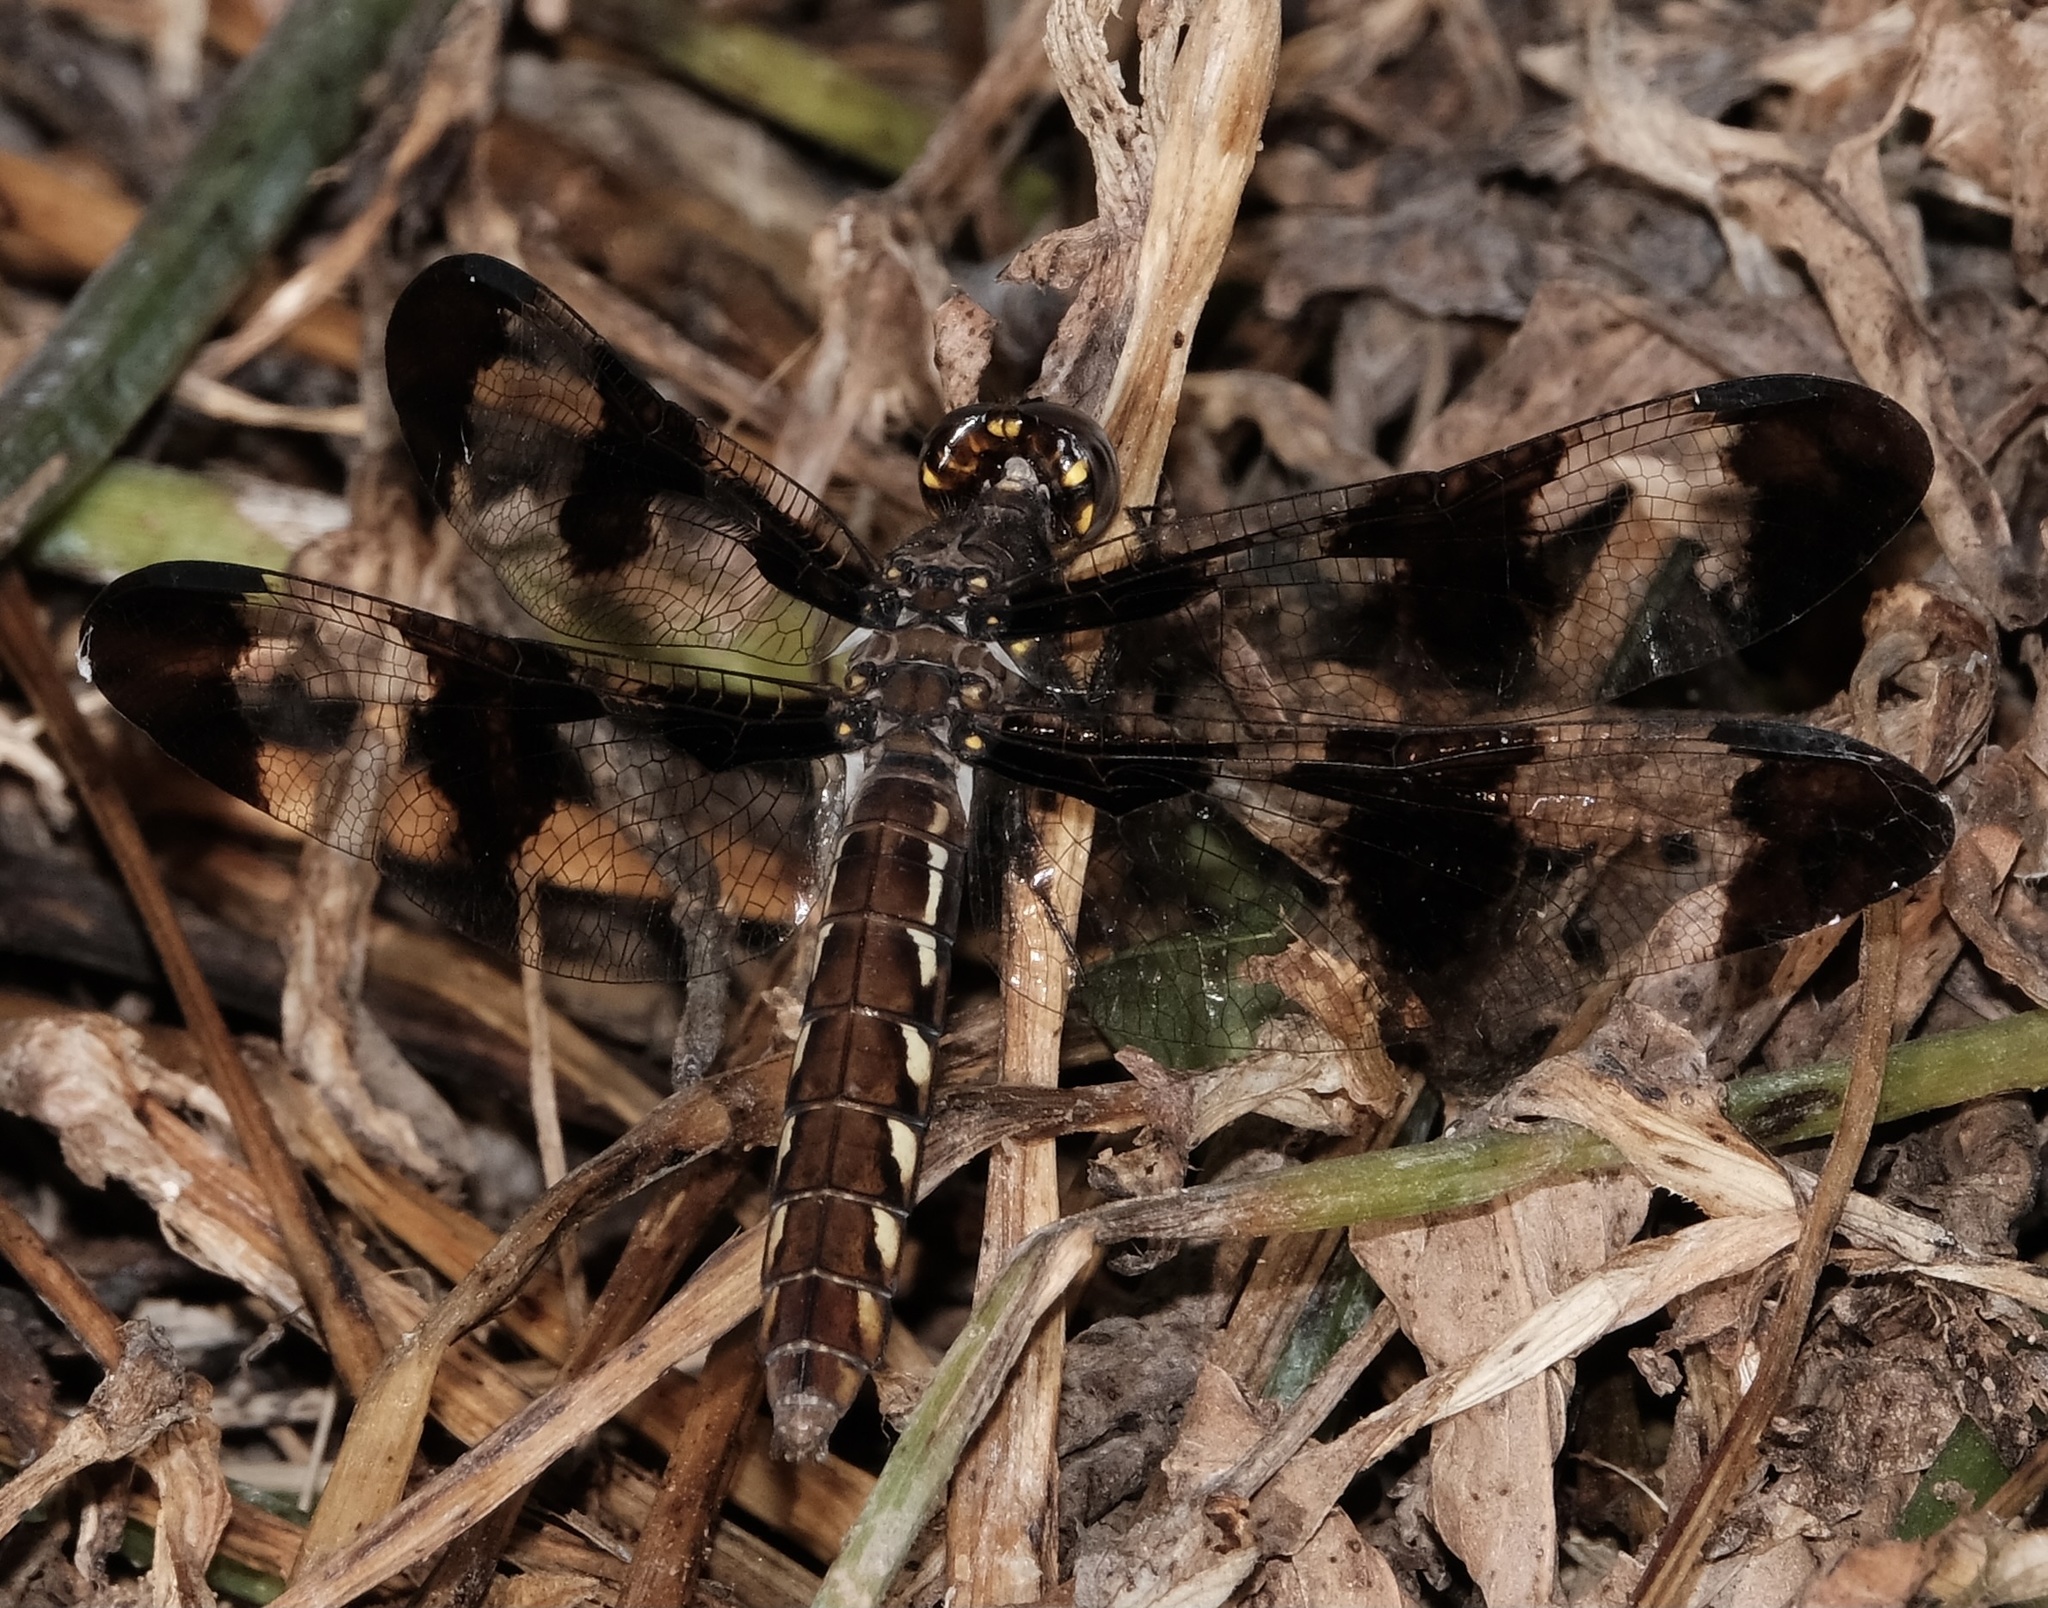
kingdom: Animalia
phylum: Arthropoda
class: Insecta
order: Odonata
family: Libellulidae
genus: Plathemis
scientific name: Plathemis lydia
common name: Common whitetail
